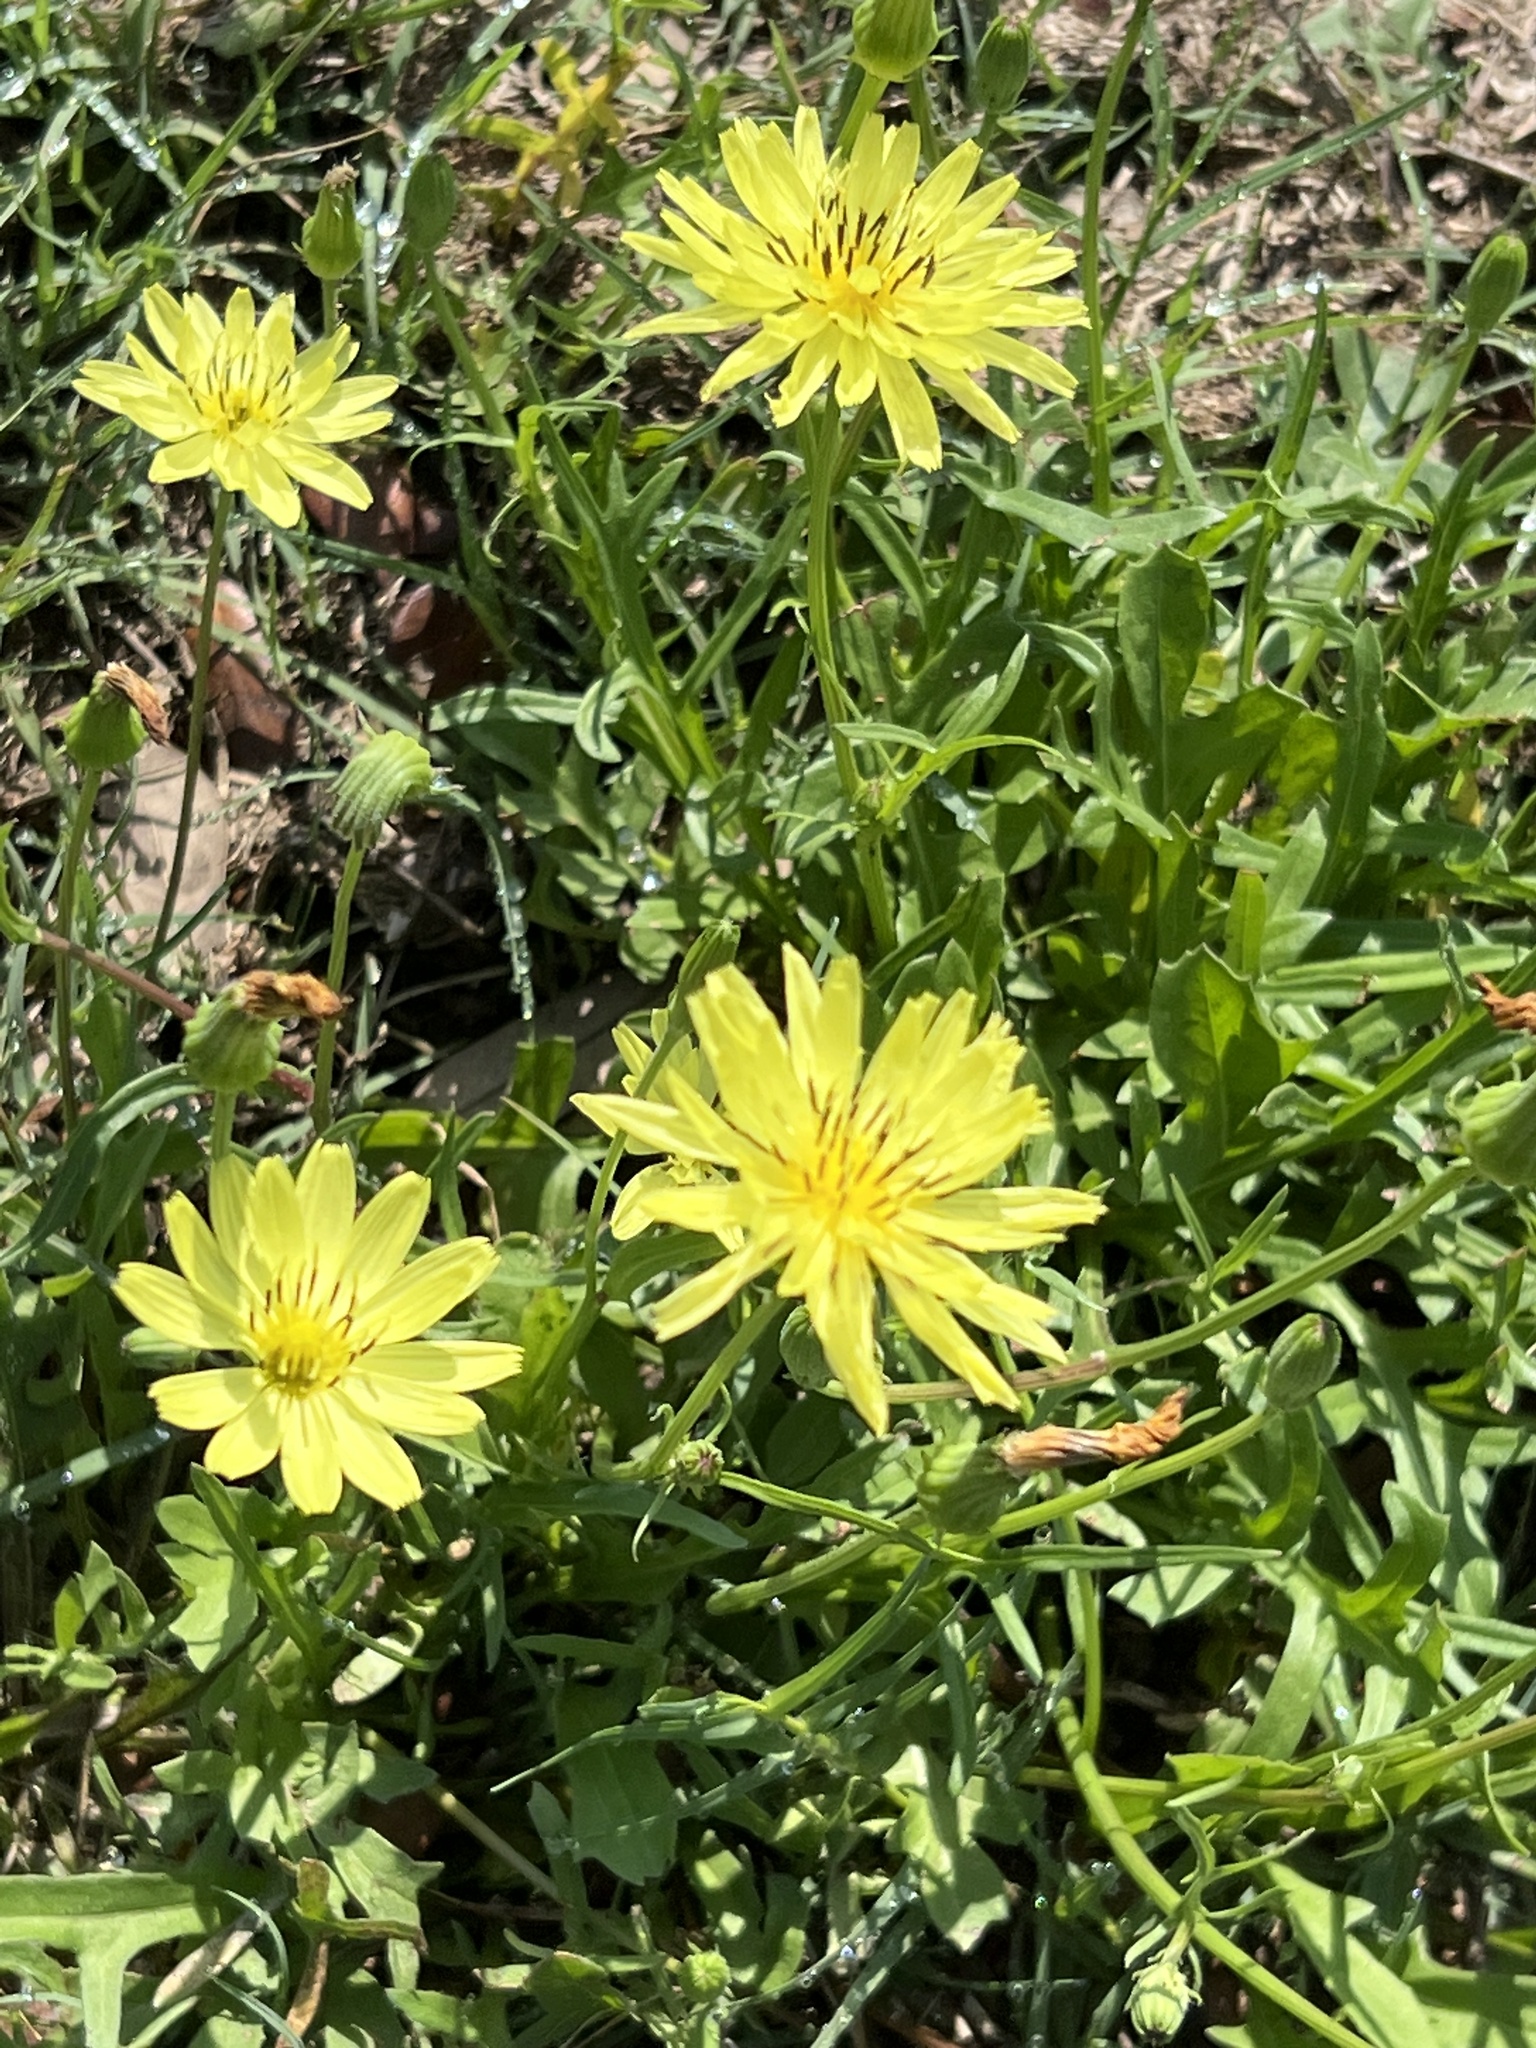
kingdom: Plantae
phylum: Tracheophyta
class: Magnoliopsida
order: Asterales
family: Asteraceae
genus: Pyrrhopappus
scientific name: Pyrrhopappus pauciflorus
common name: Texas false dandelion
